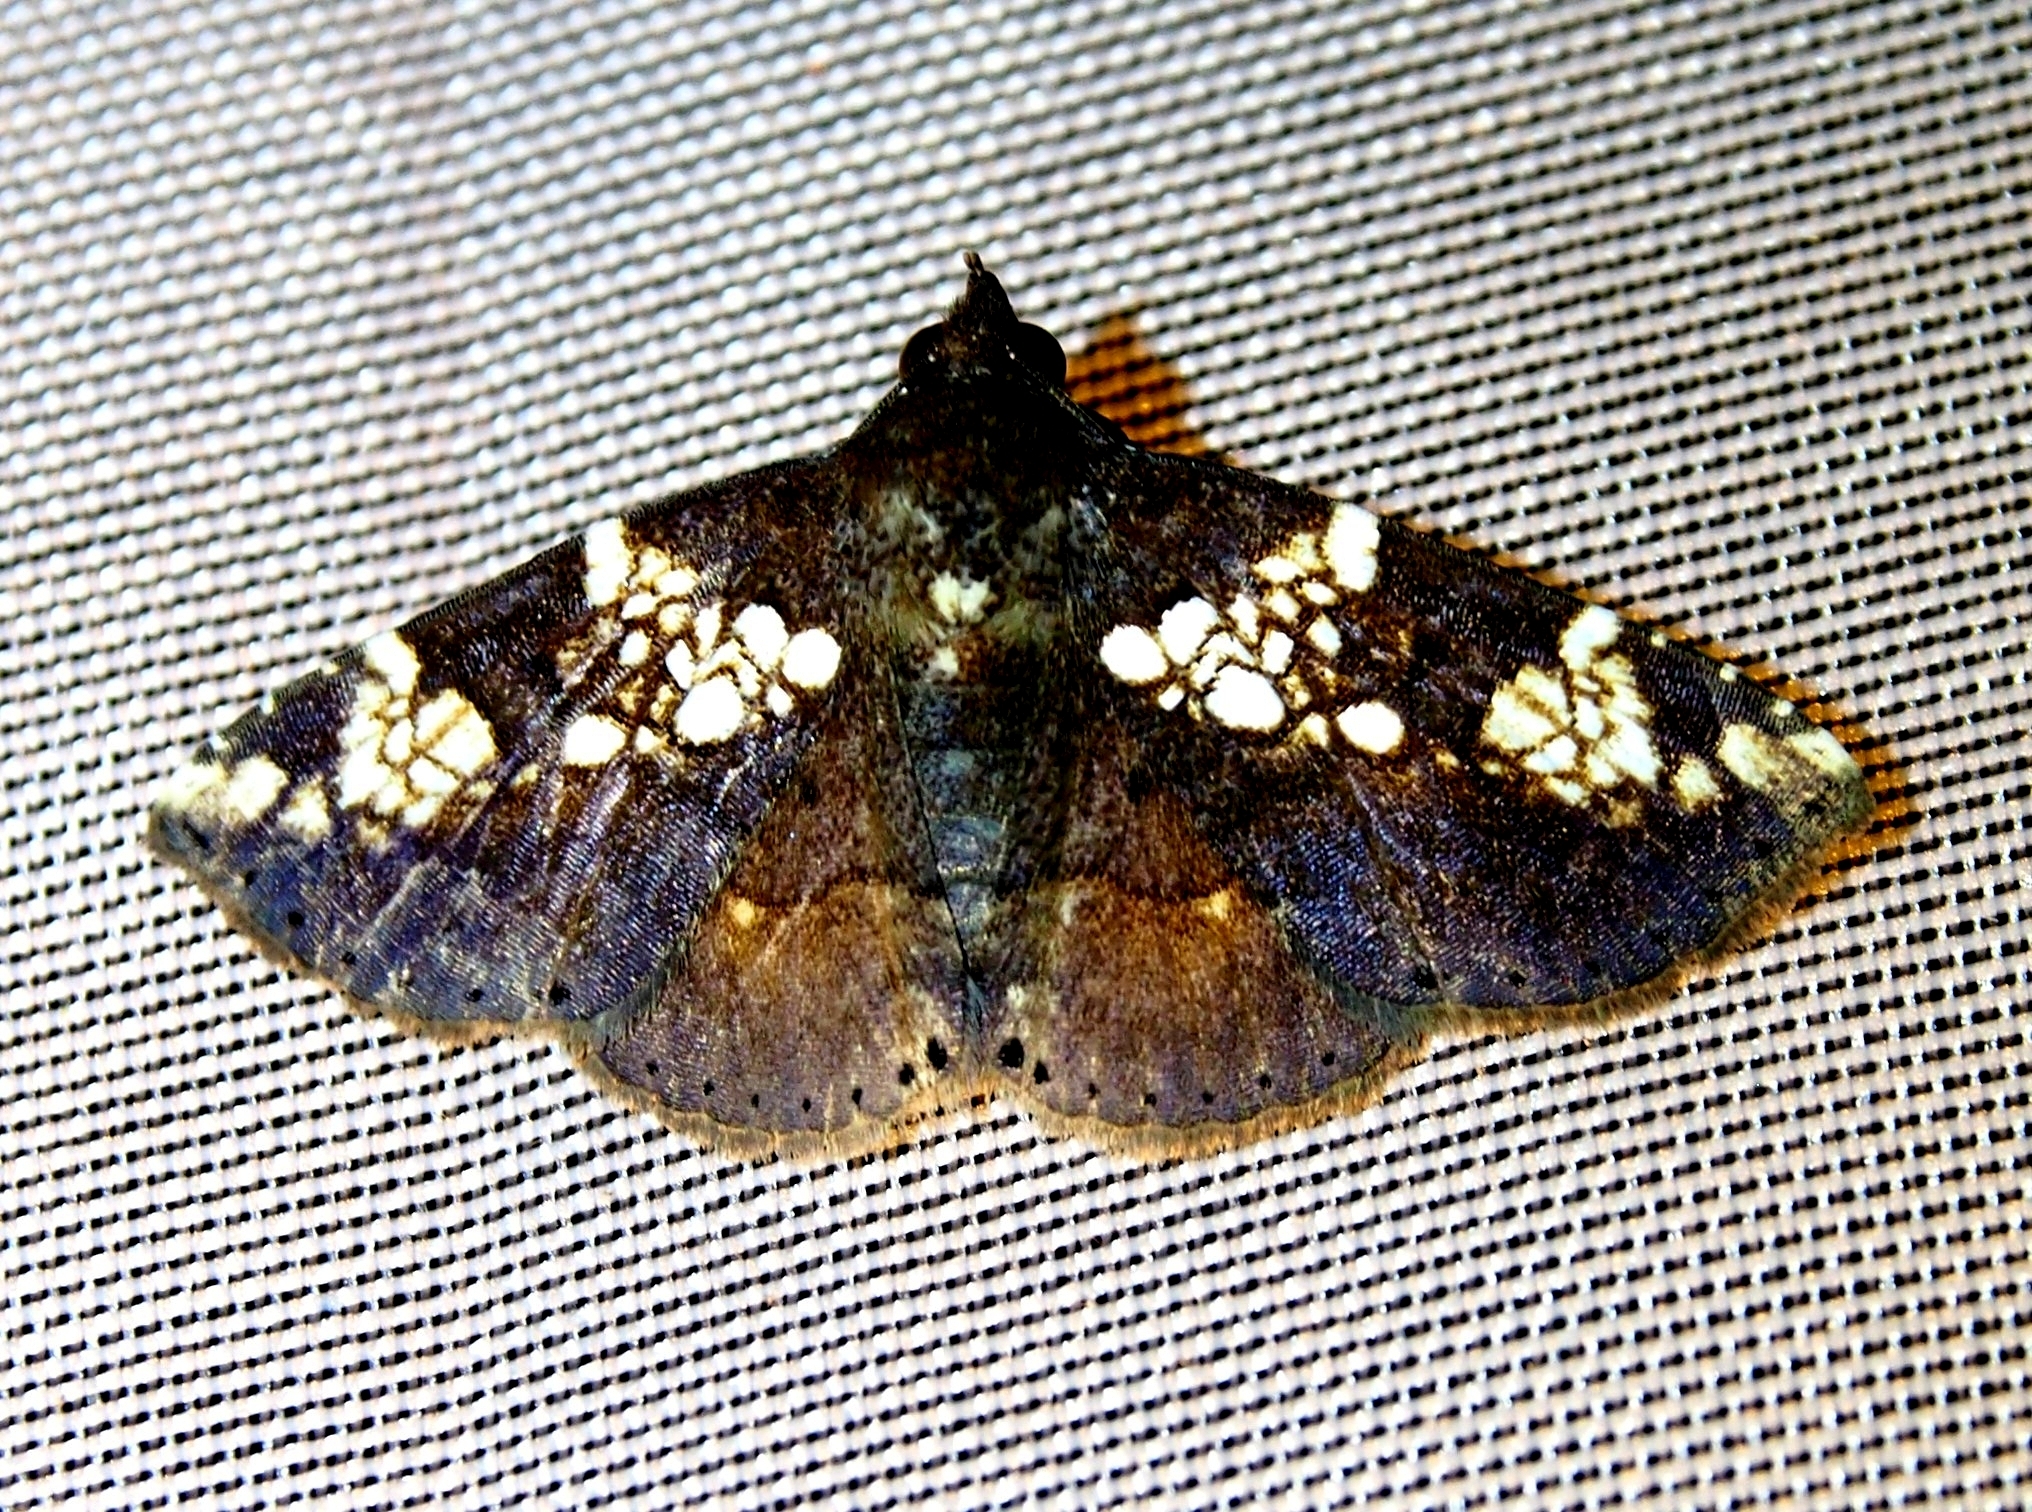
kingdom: Animalia
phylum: Arthropoda
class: Insecta
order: Lepidoptera
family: Erebidae
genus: Antiblemma
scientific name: Antiblemma perornata
